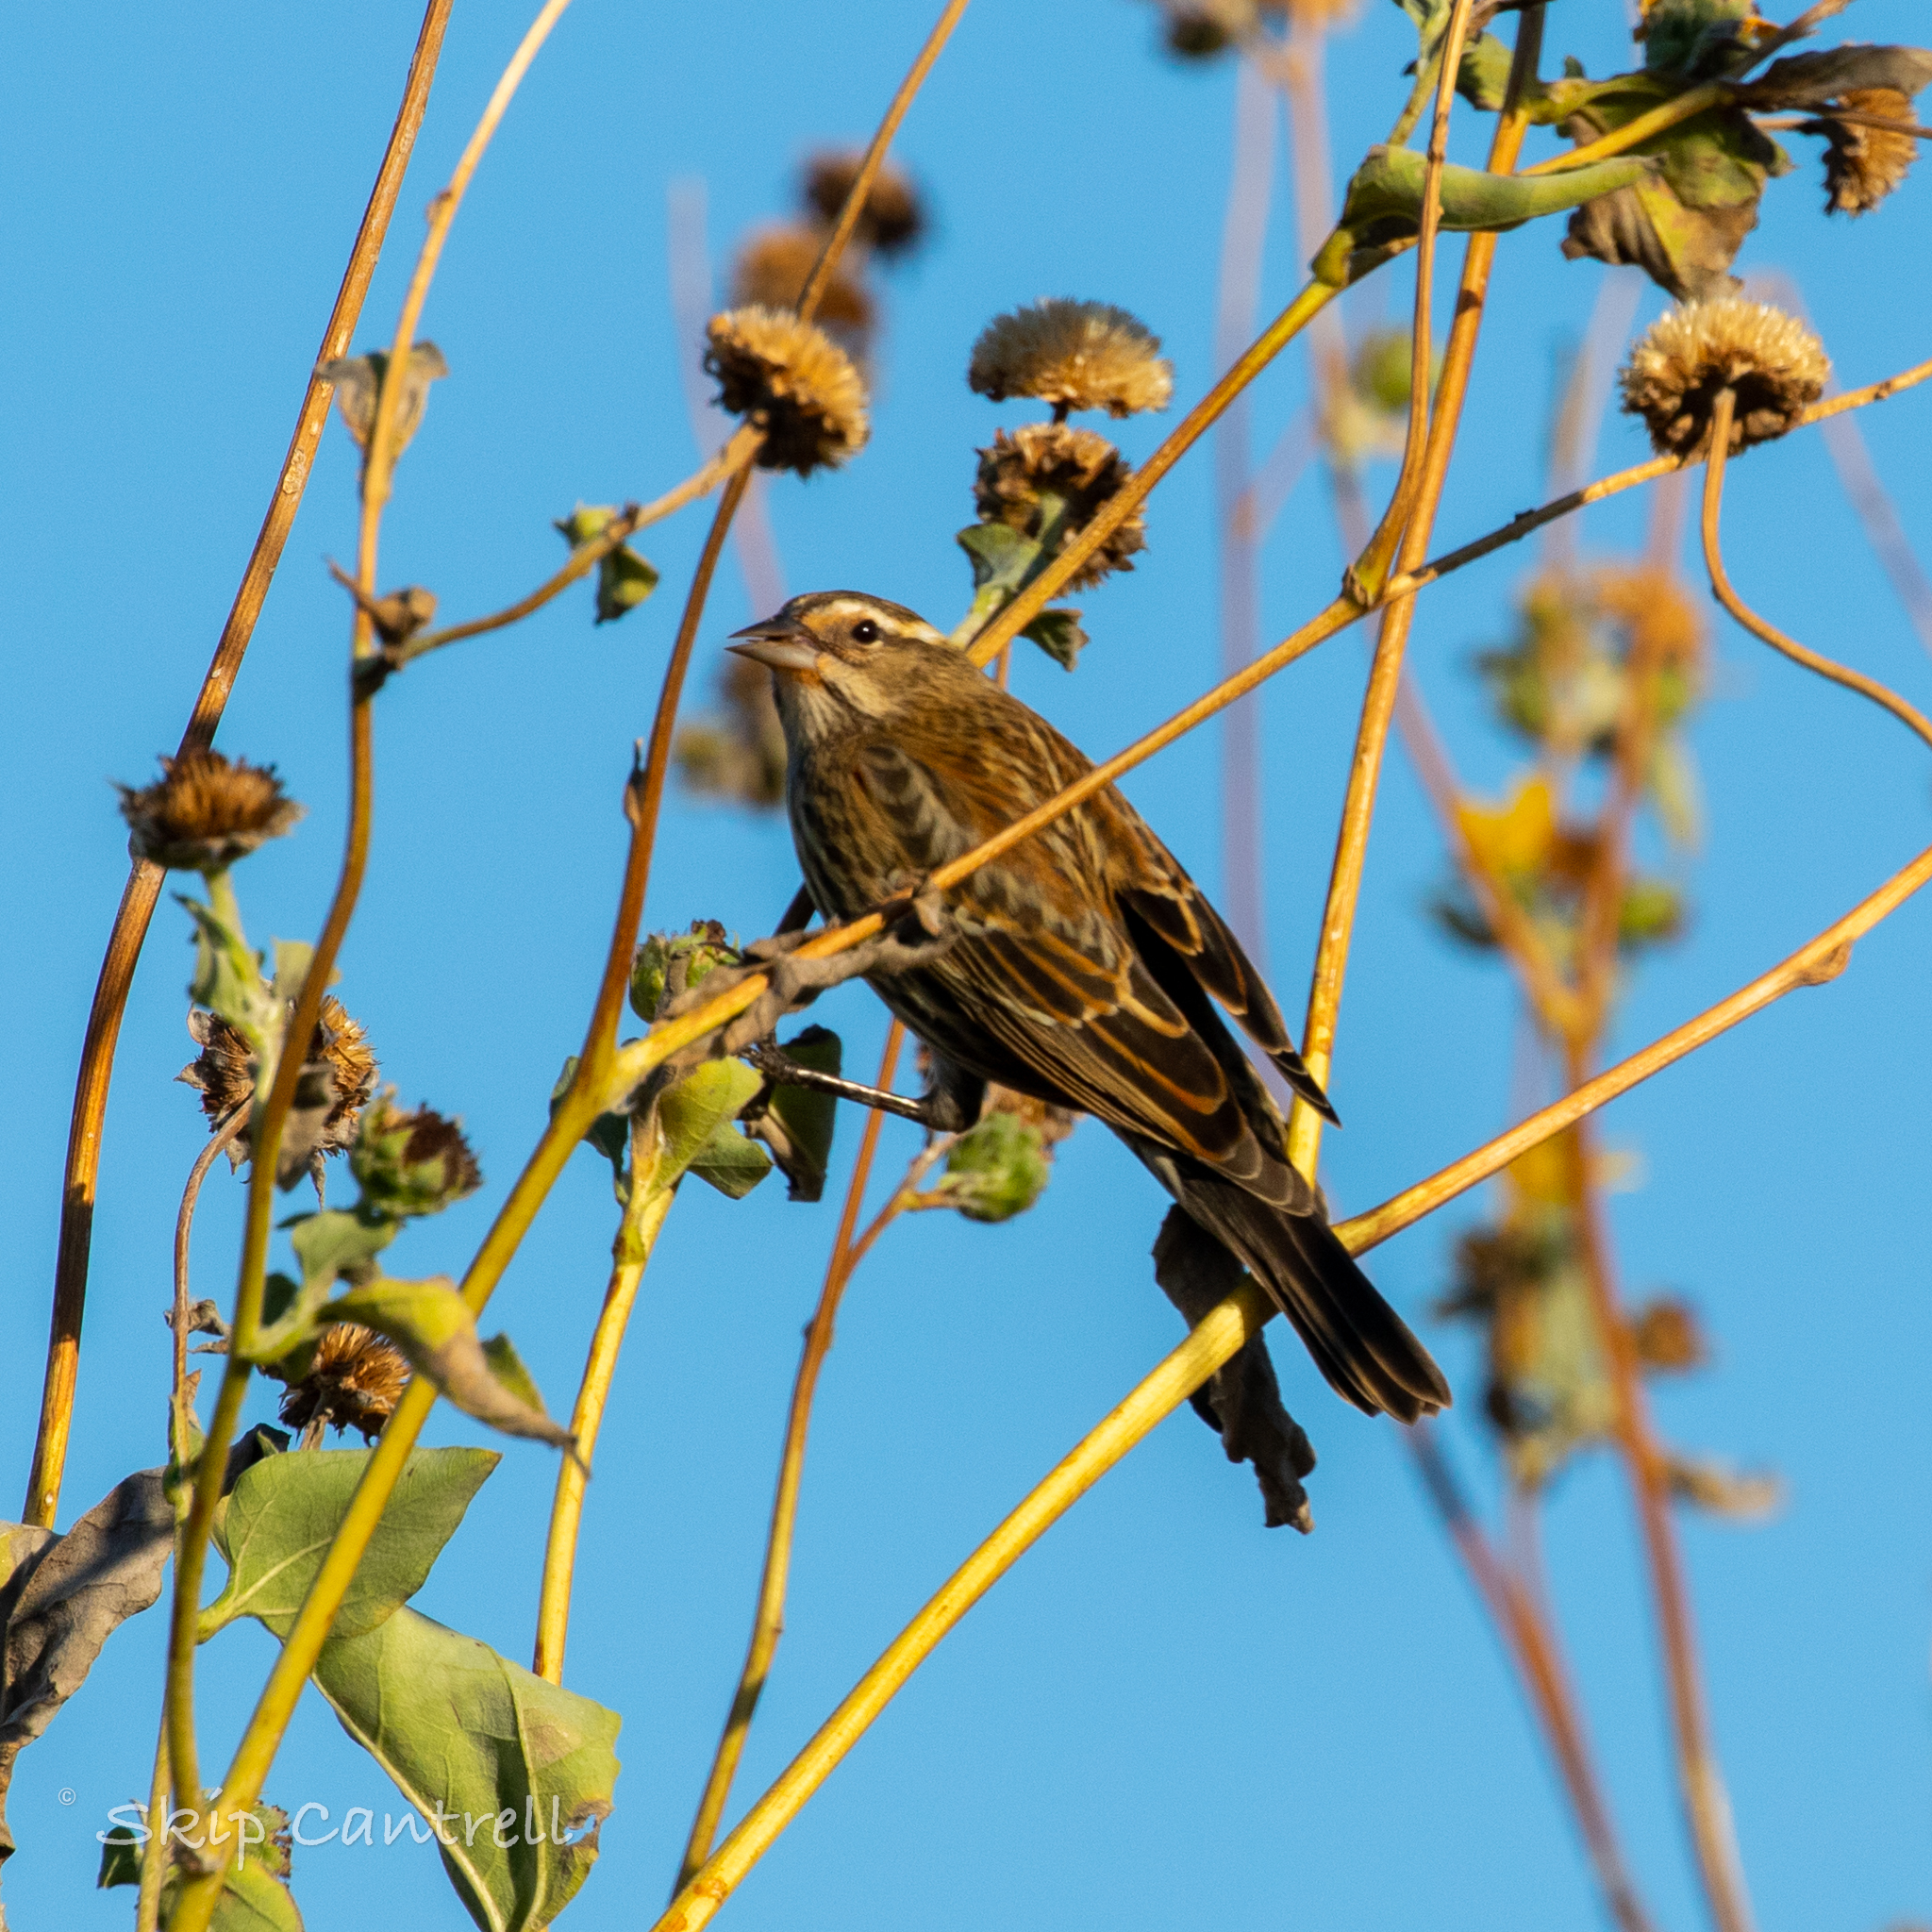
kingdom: Animalia
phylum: Chordata
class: Aves
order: Passeriformes
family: Icteridae
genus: Agelaius
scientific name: Agelaius phoeniceus
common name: Red-winged blackbird
